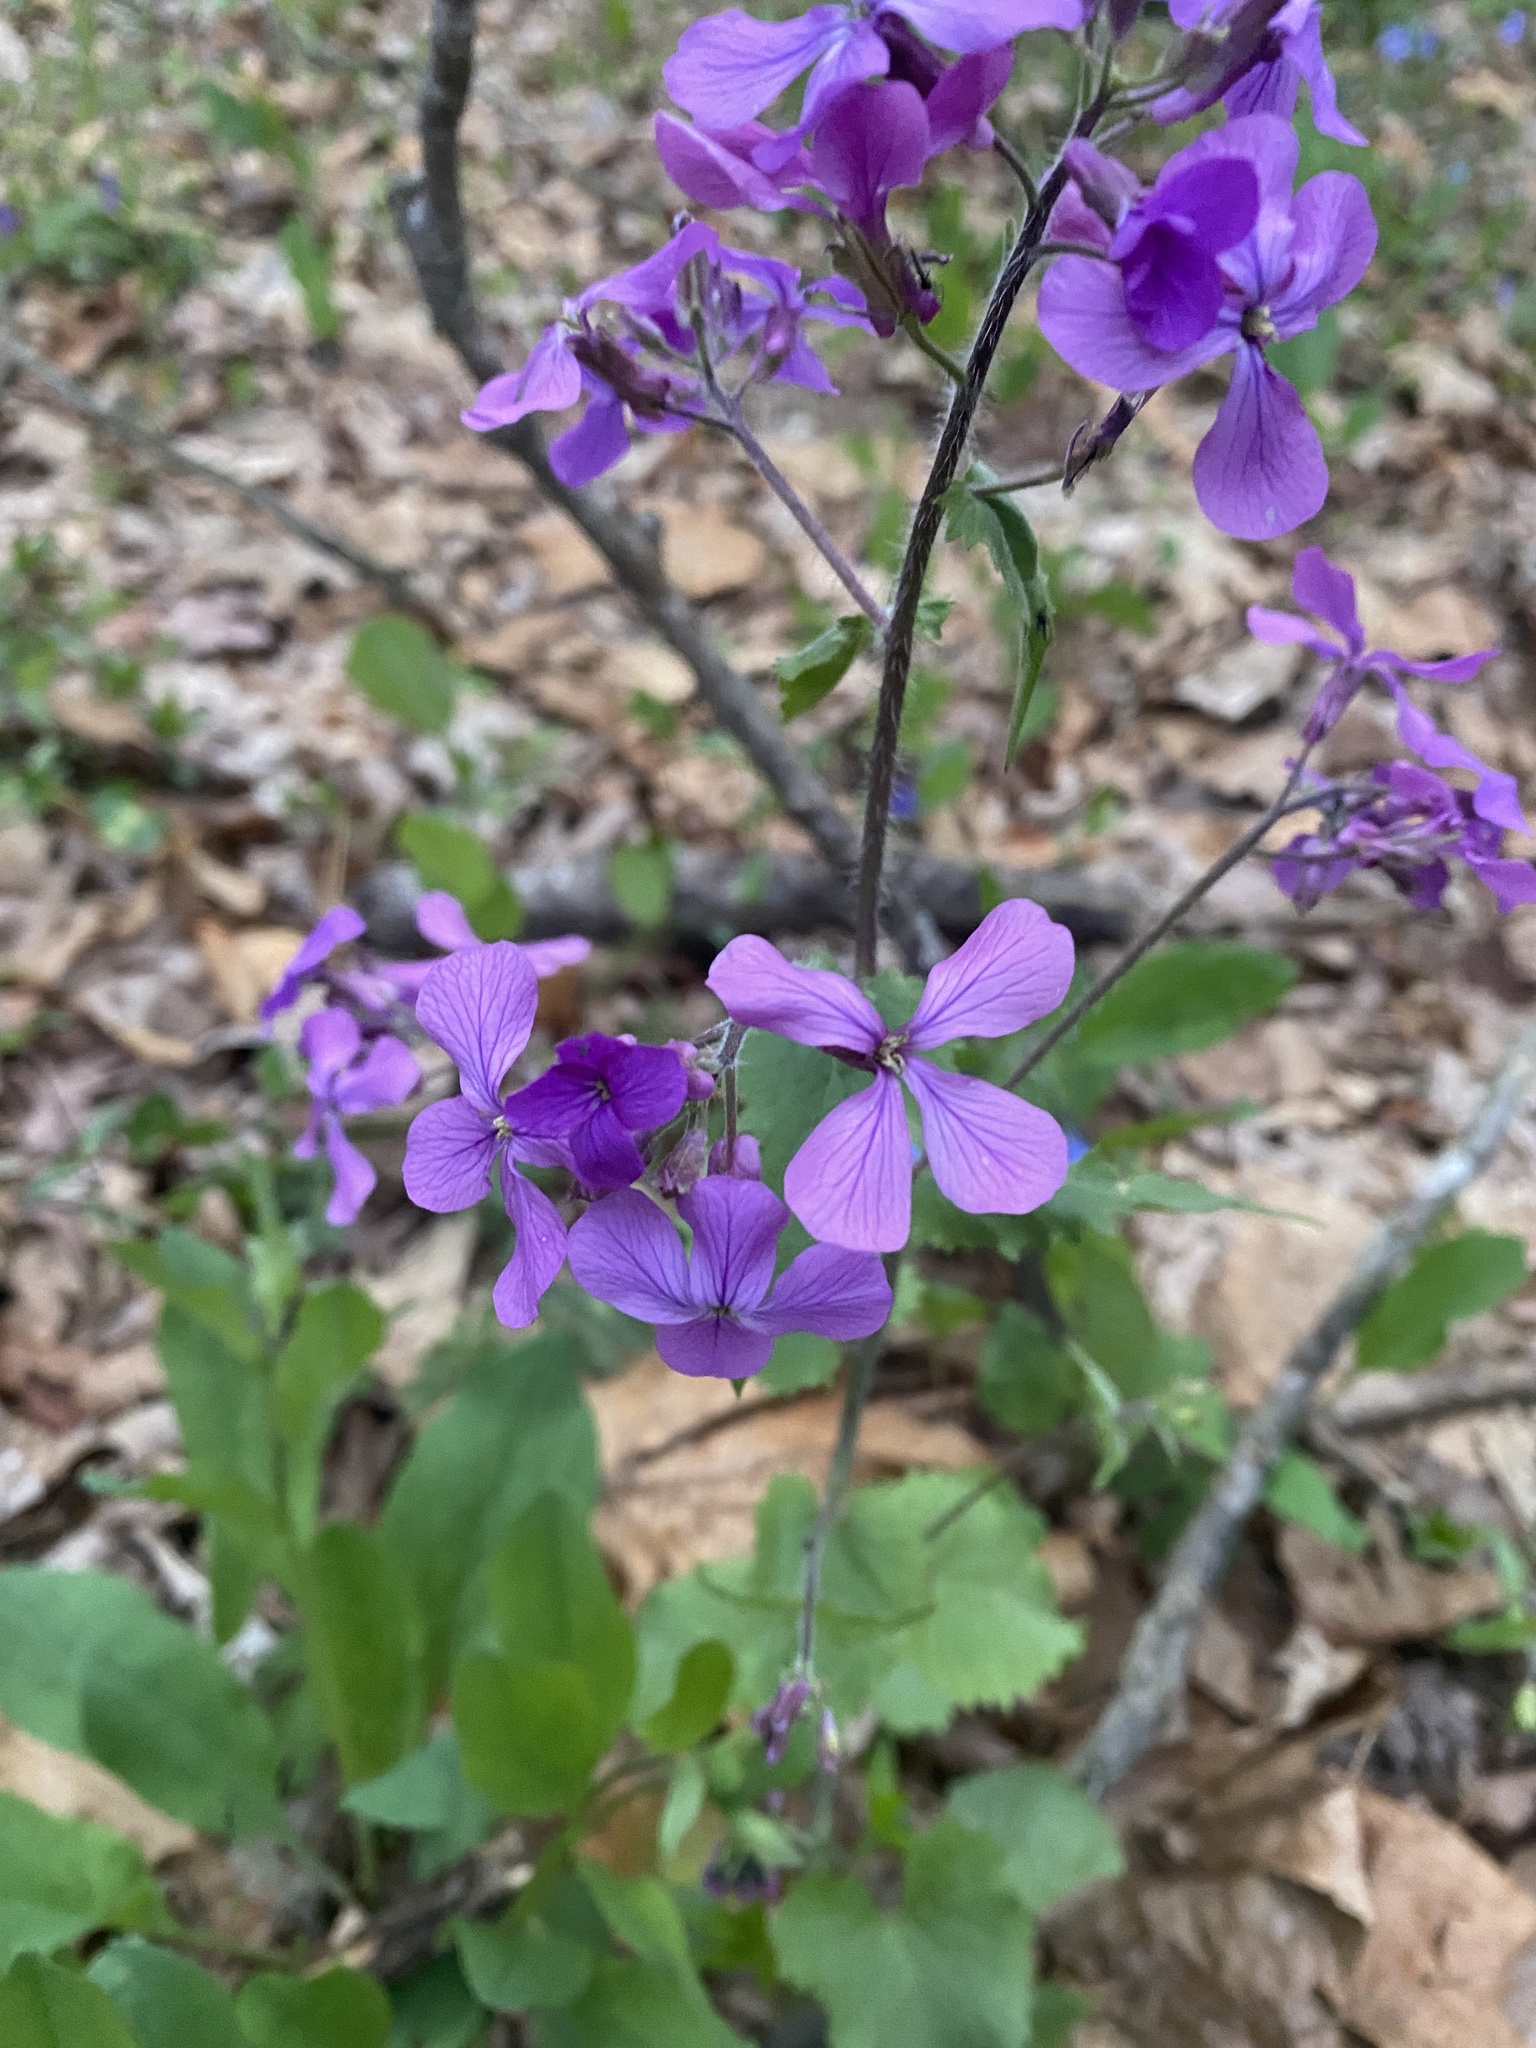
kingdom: Plantae
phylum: Tracheophyta
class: Magnoliopsida
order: Brassicales
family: Brassicaceae
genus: Lunaria
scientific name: Lunaria annua
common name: Honesty
